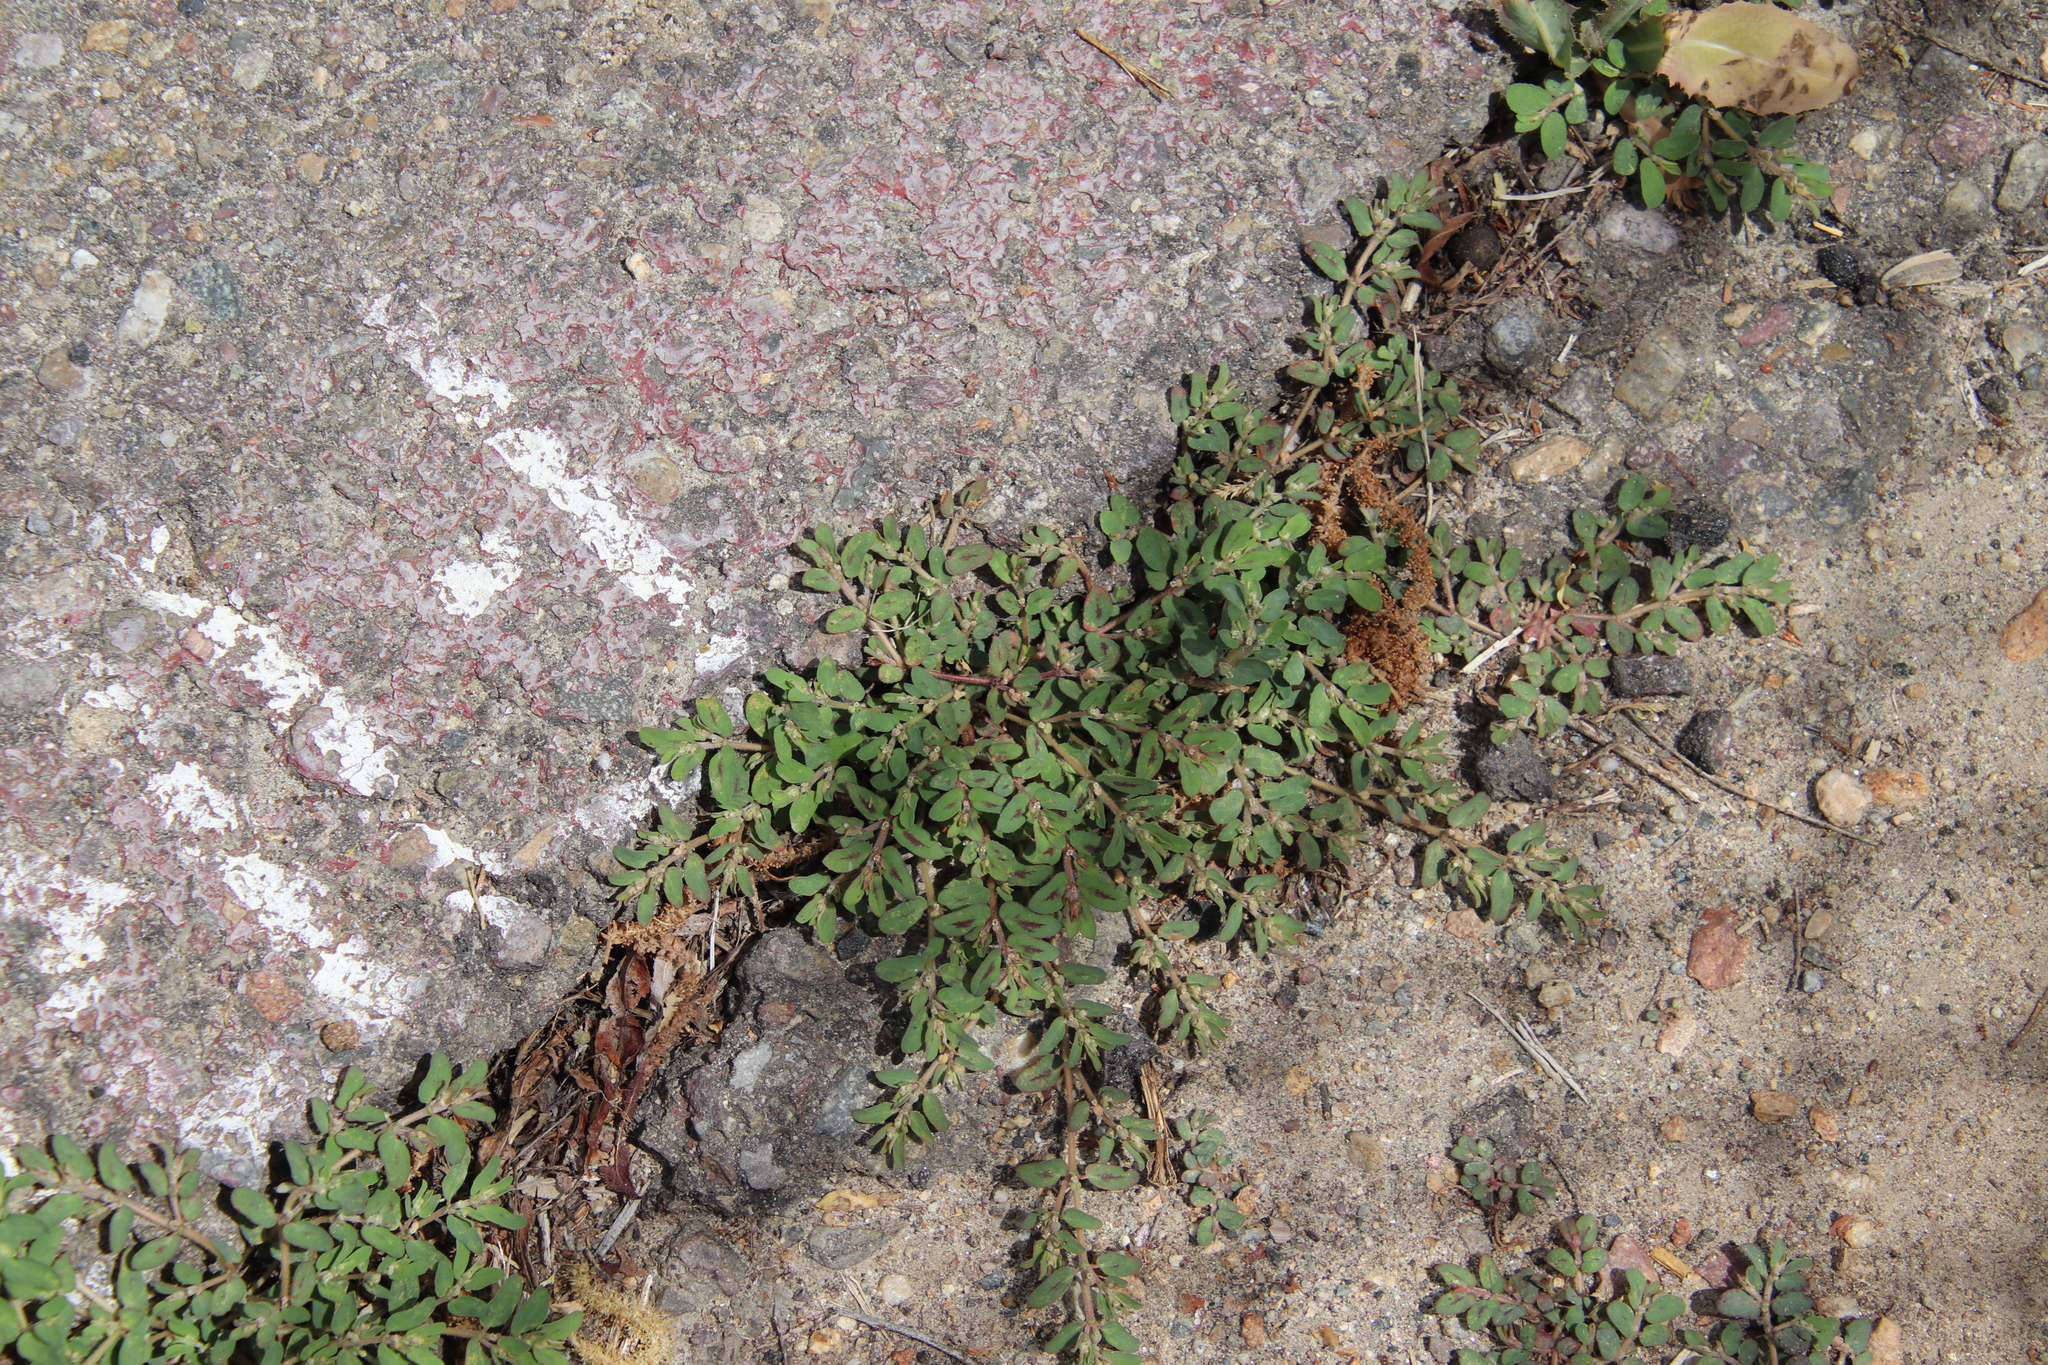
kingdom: Plantae
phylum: Tracheophyta
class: Magnoliopsida
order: Malpighiales
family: Euphorbiaceae
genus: Euphorbia
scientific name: Euphorbia maculata
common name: Spotted spurge
